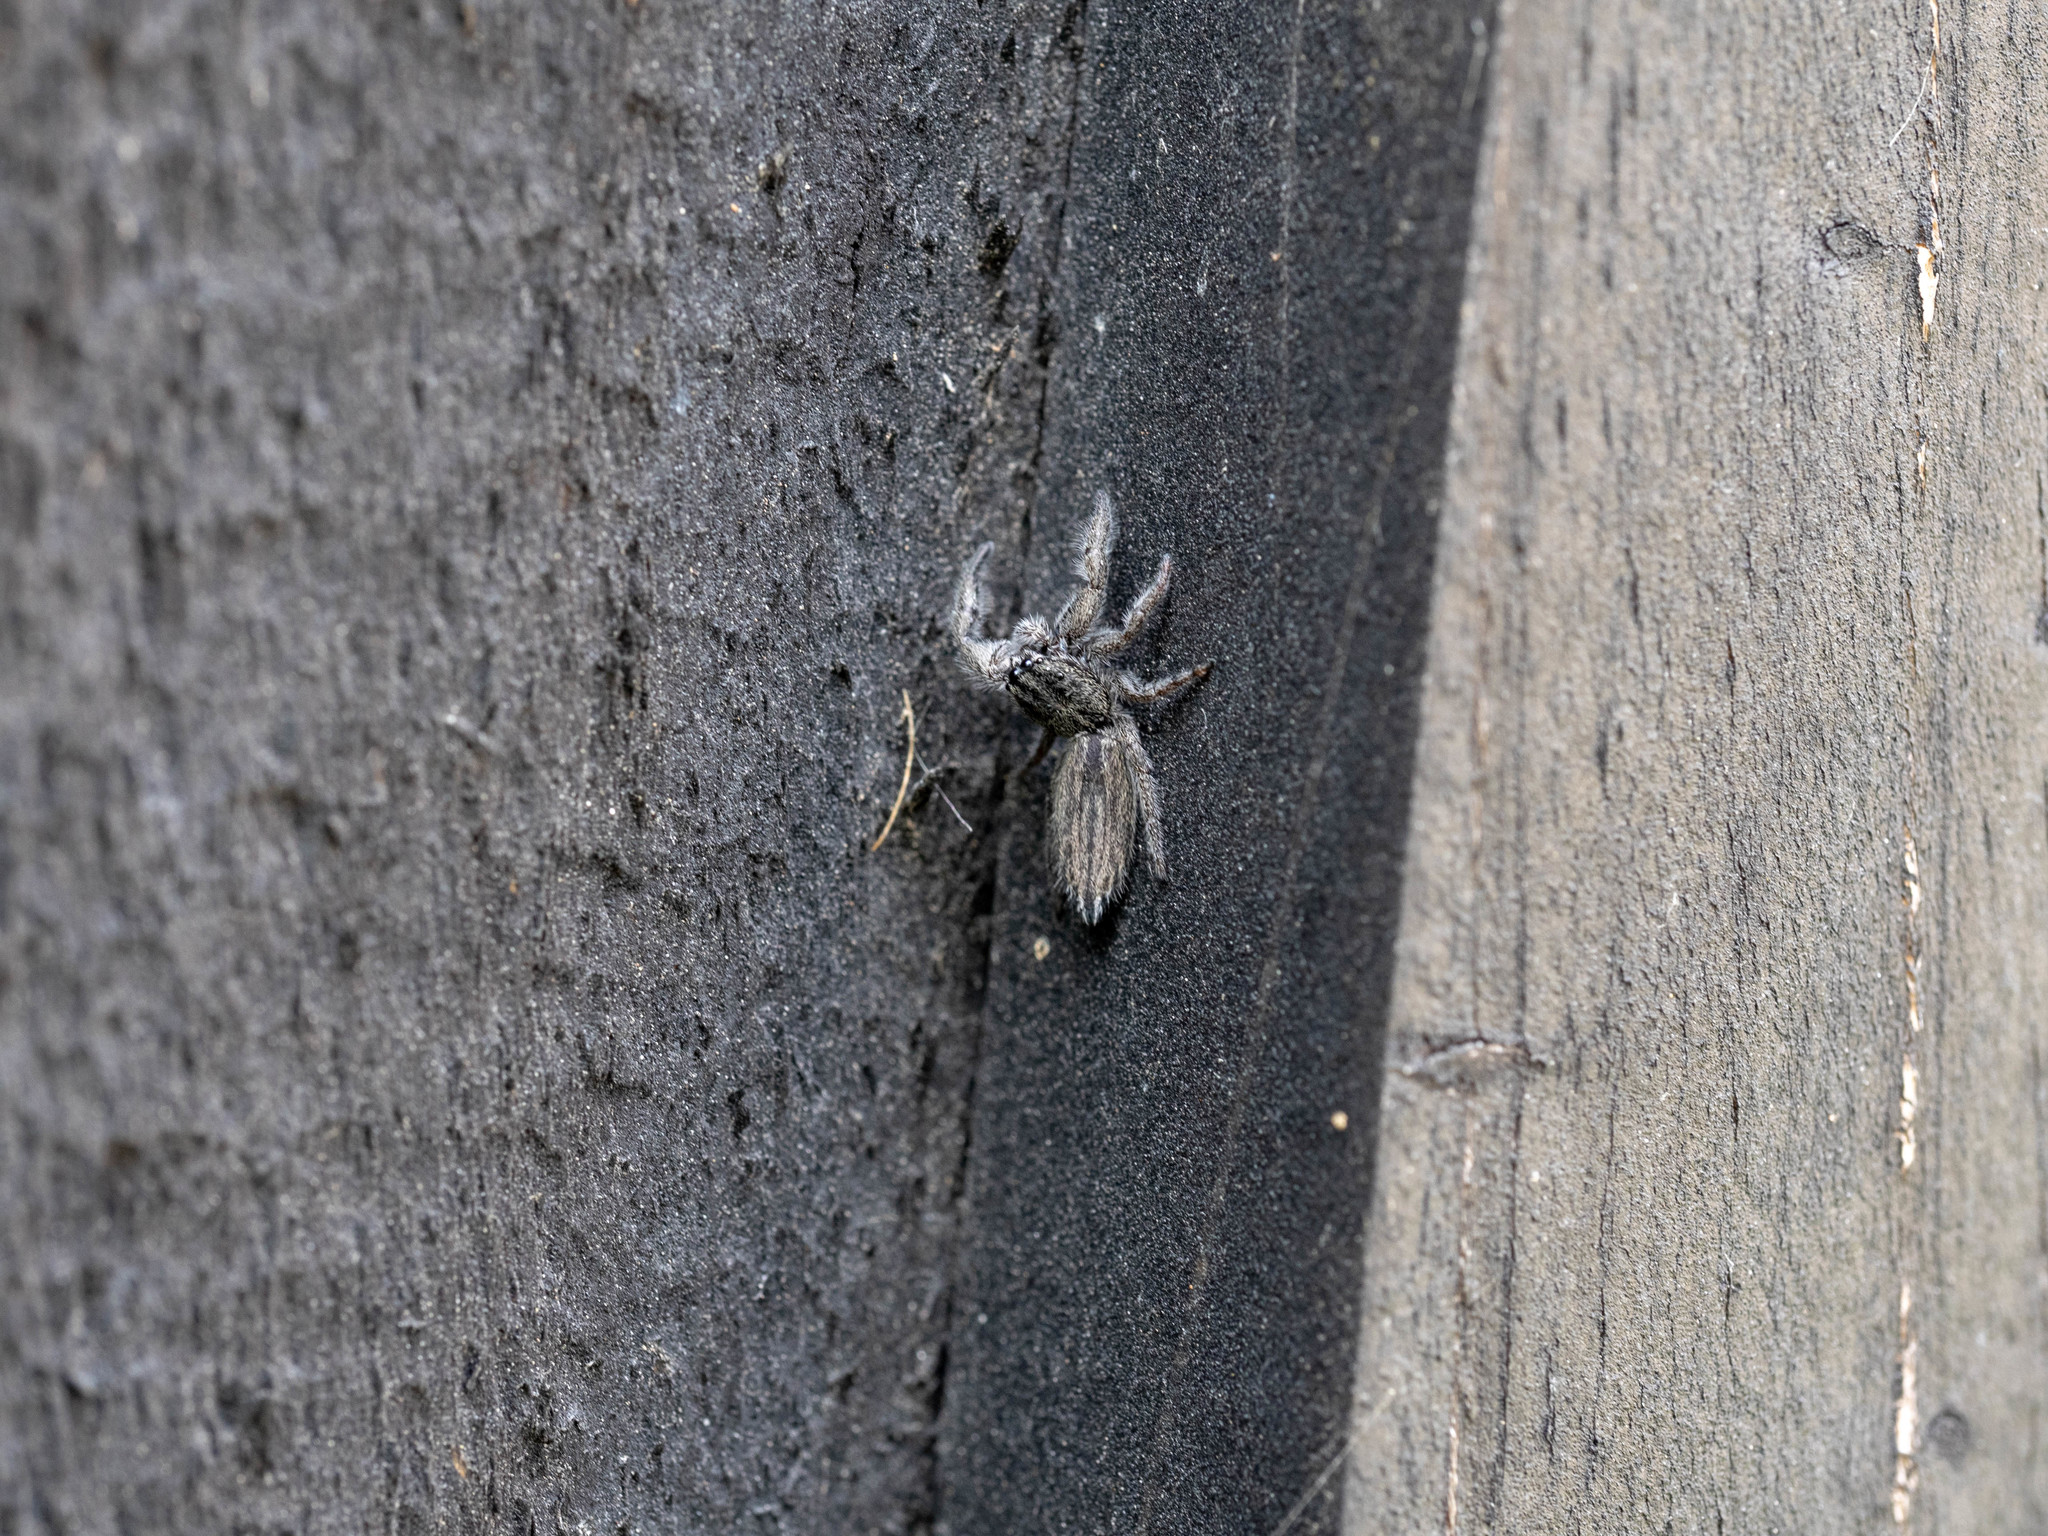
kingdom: Animalia
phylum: Arthropoda
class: Arachnida
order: Araneae
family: Salticidae
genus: Holoplatys
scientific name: Holoplatys apressus
